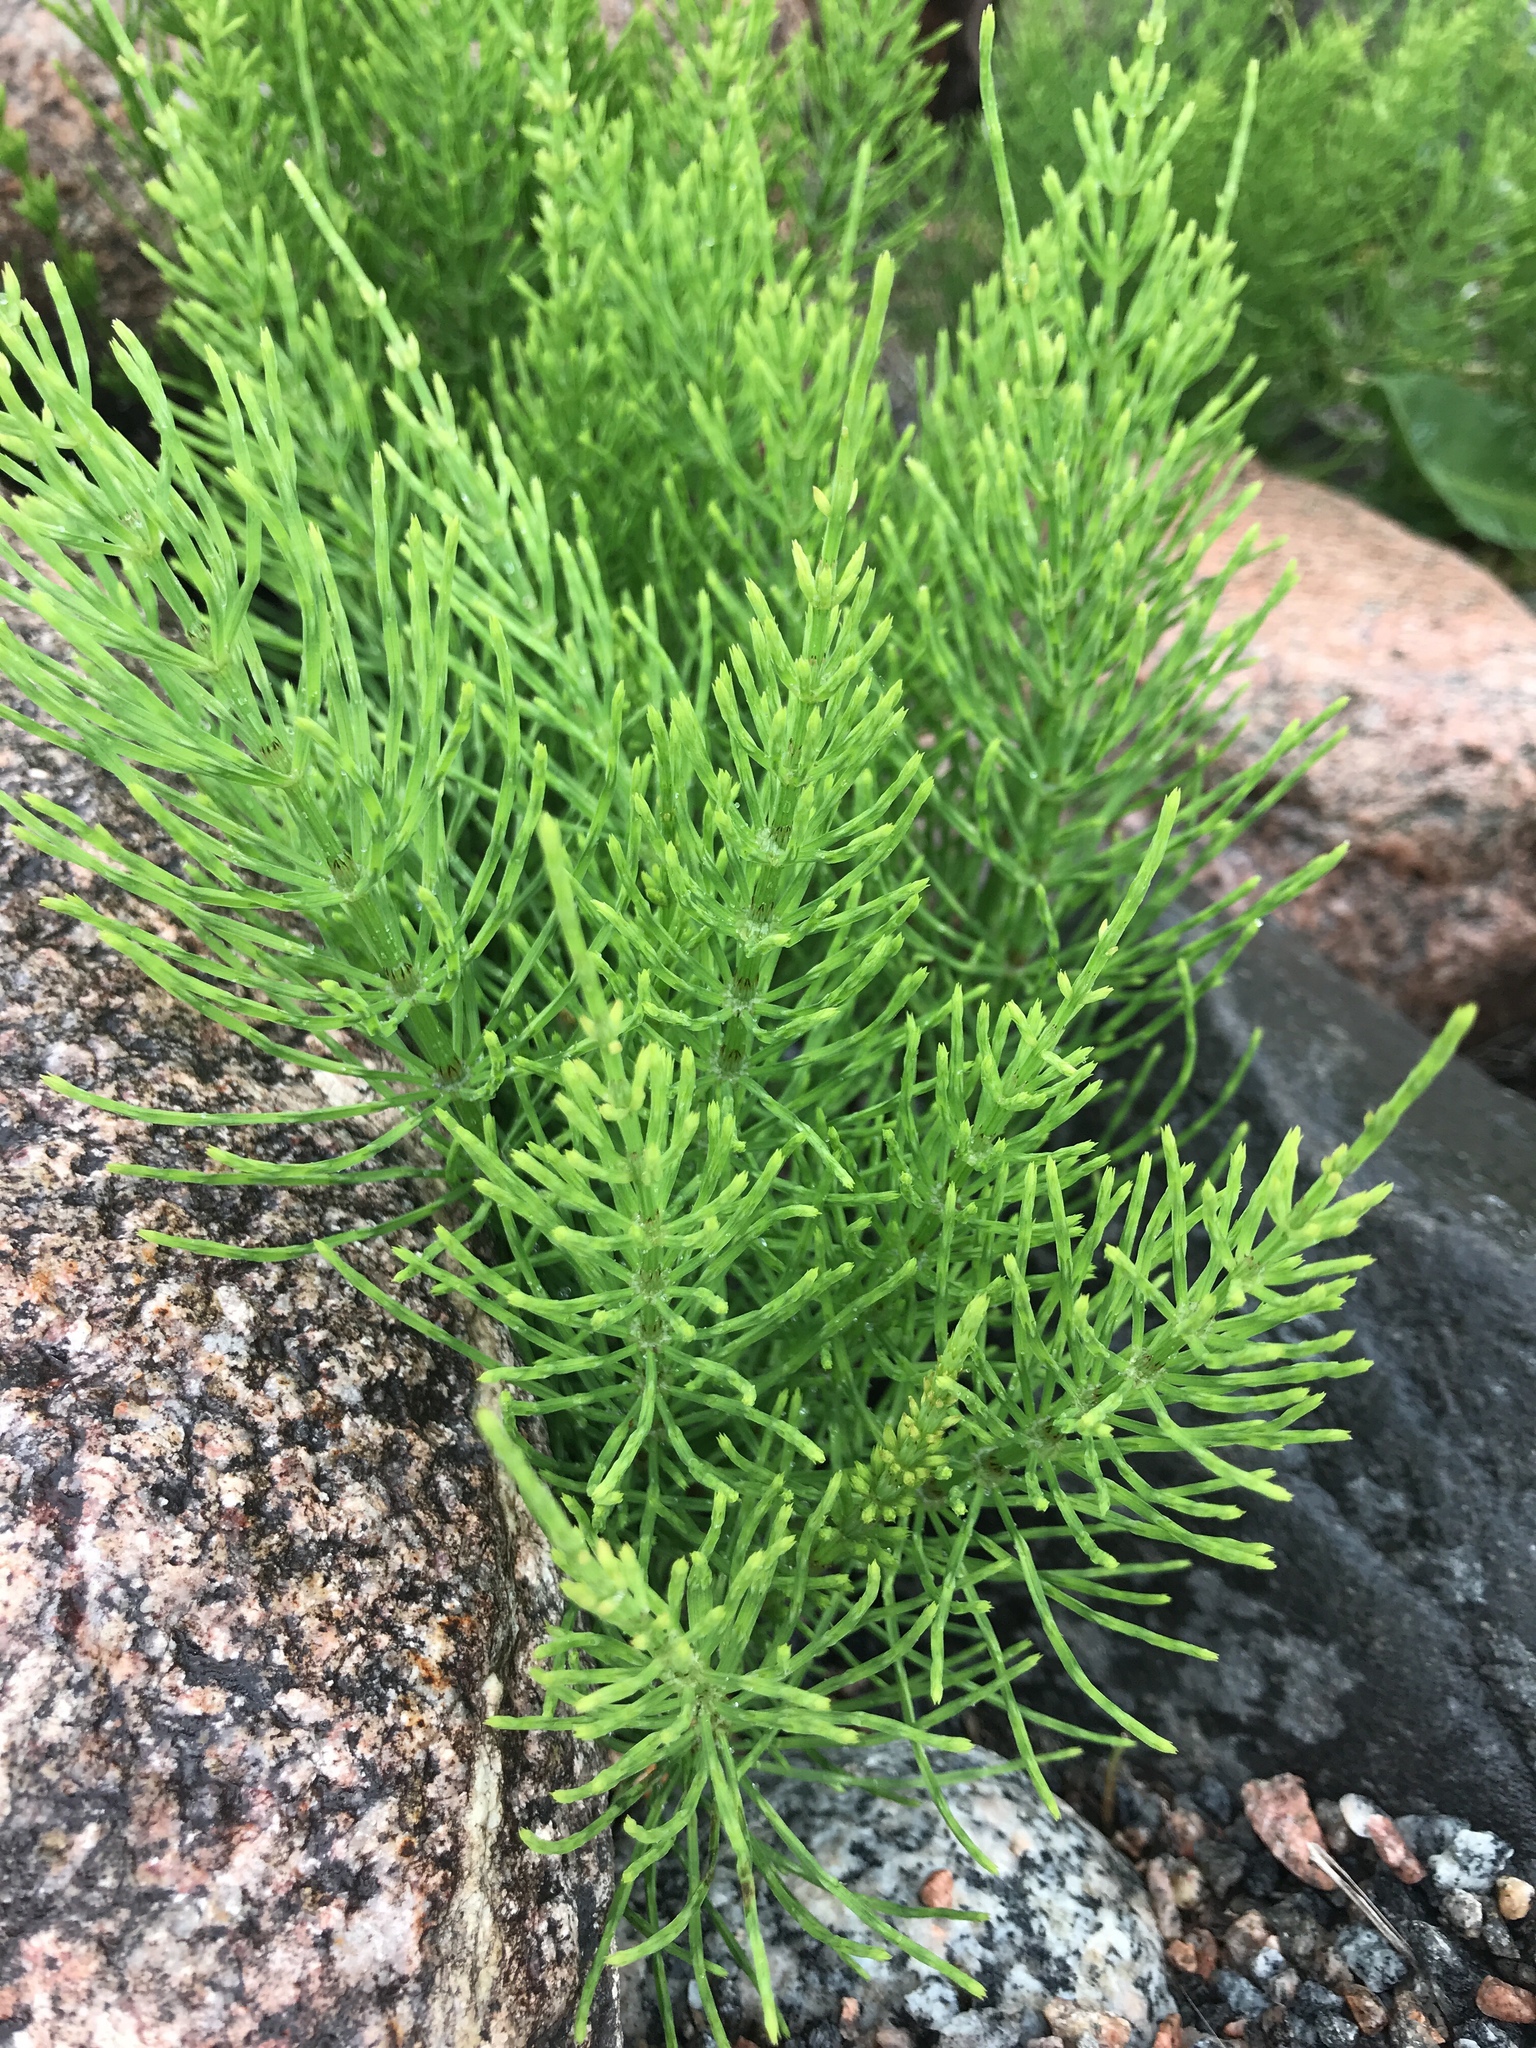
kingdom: Plantae
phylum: Tracheophyta
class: Polypodiopsida
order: Equisetales
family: Equisetaceae
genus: Equisetum
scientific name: Equisetum arvense
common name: Field horsetail
